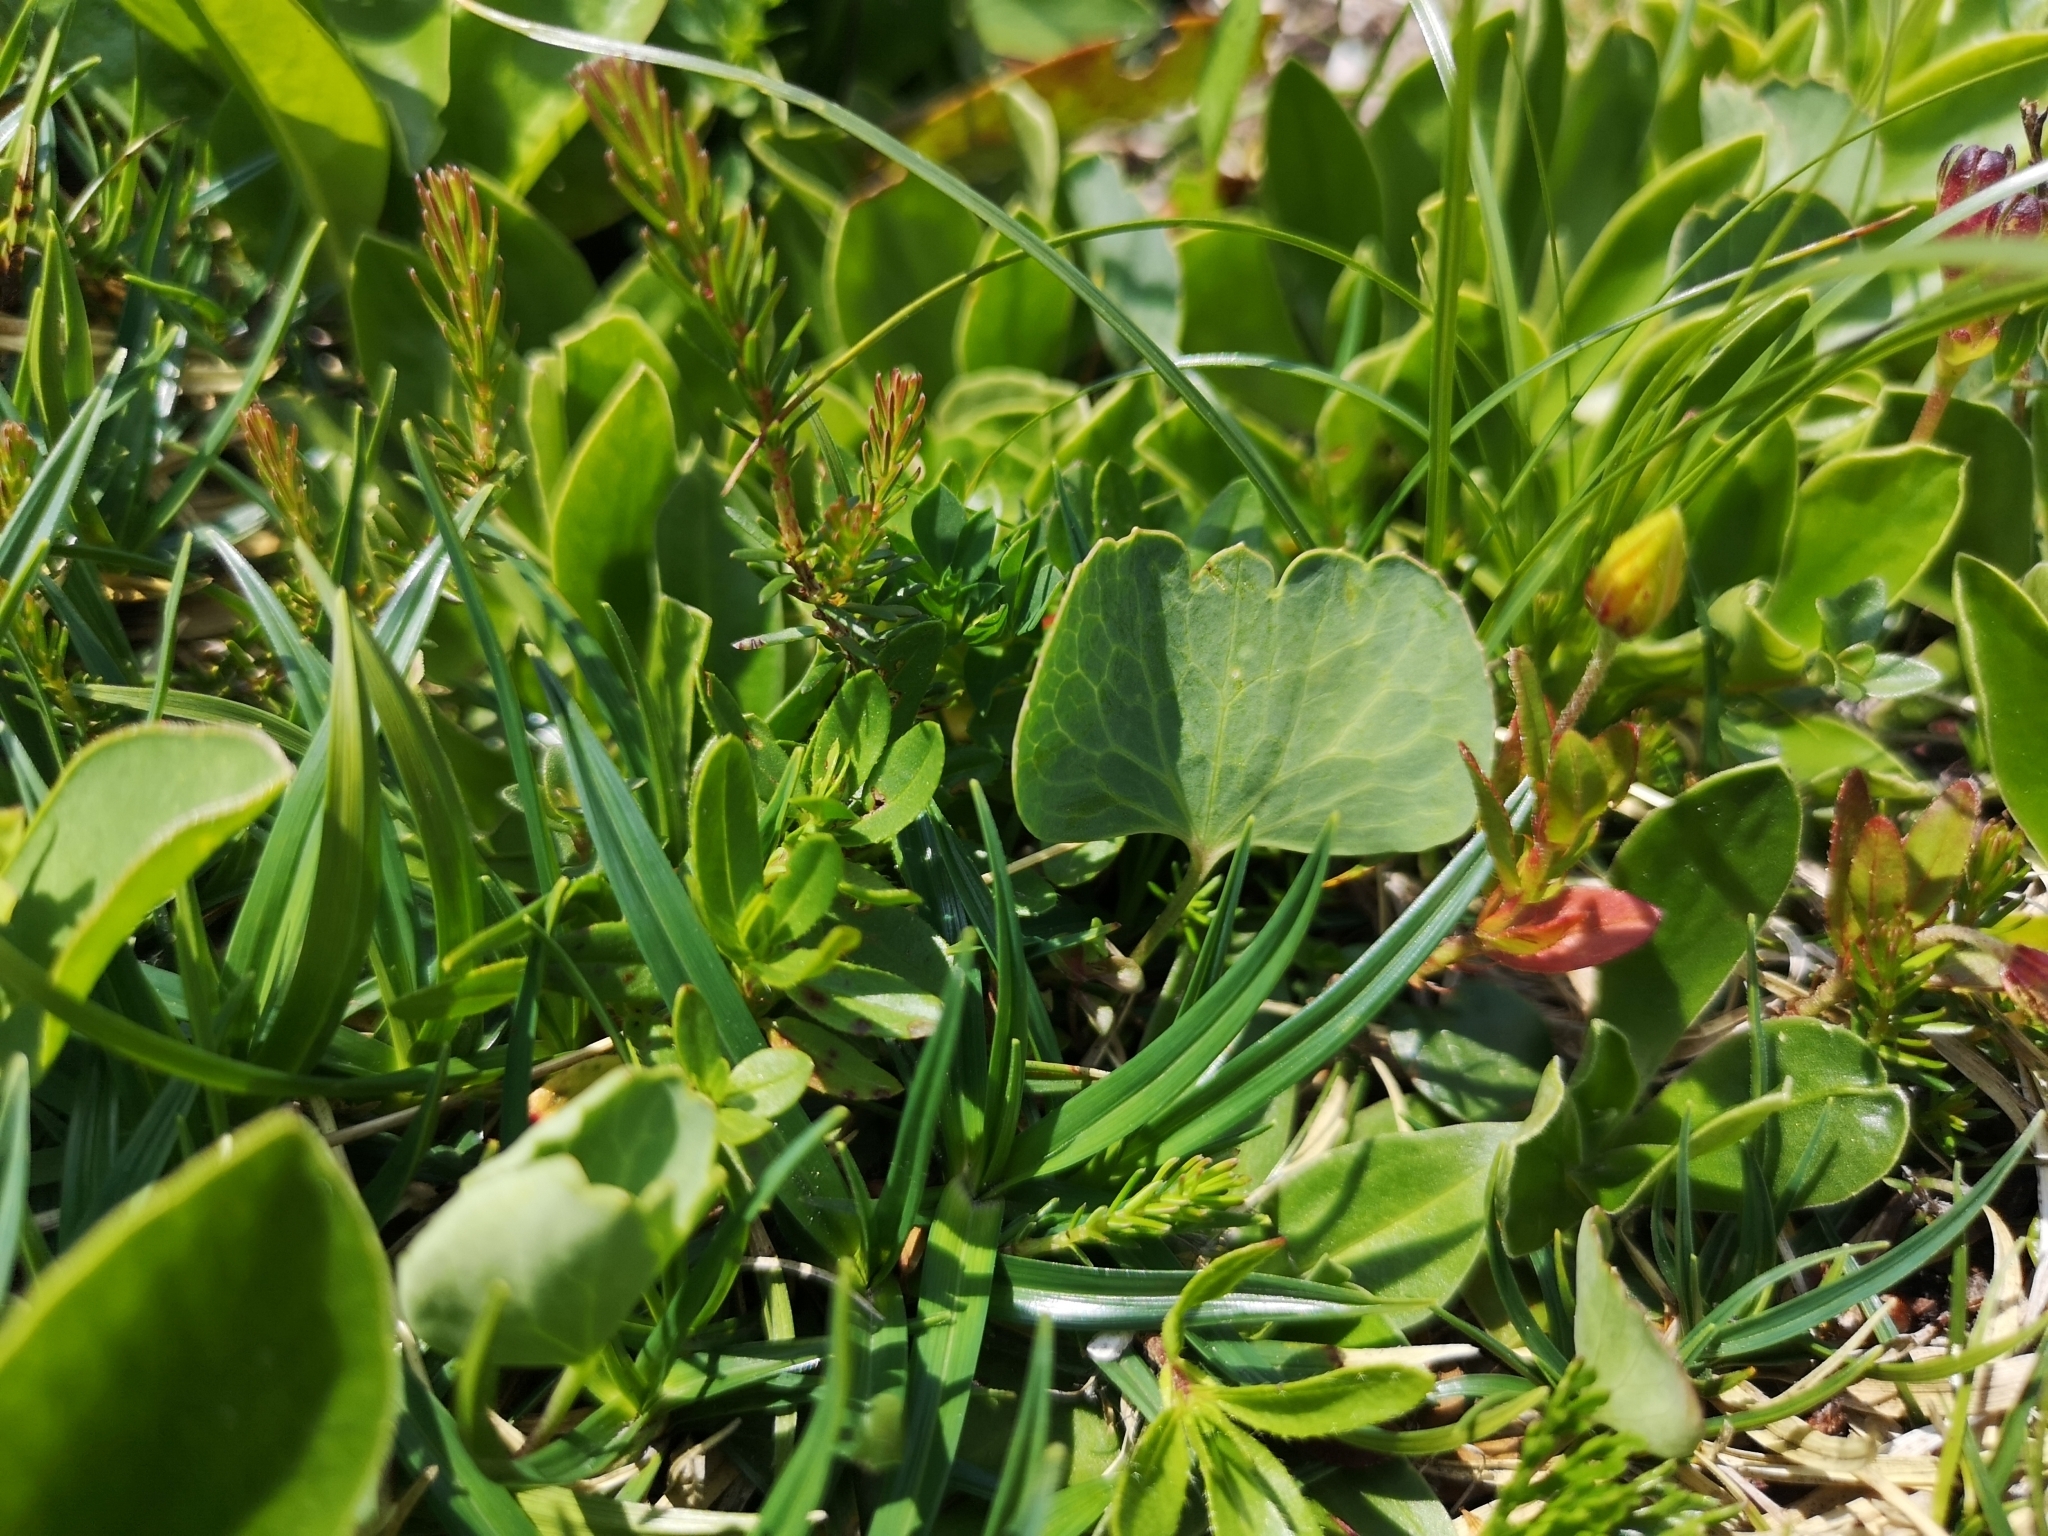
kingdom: Plantae
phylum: Tracheophyta
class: Magnoliopsida
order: Ranunculales
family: Ranunculaceae
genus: Ranunculus
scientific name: Ranunculus hybridus
